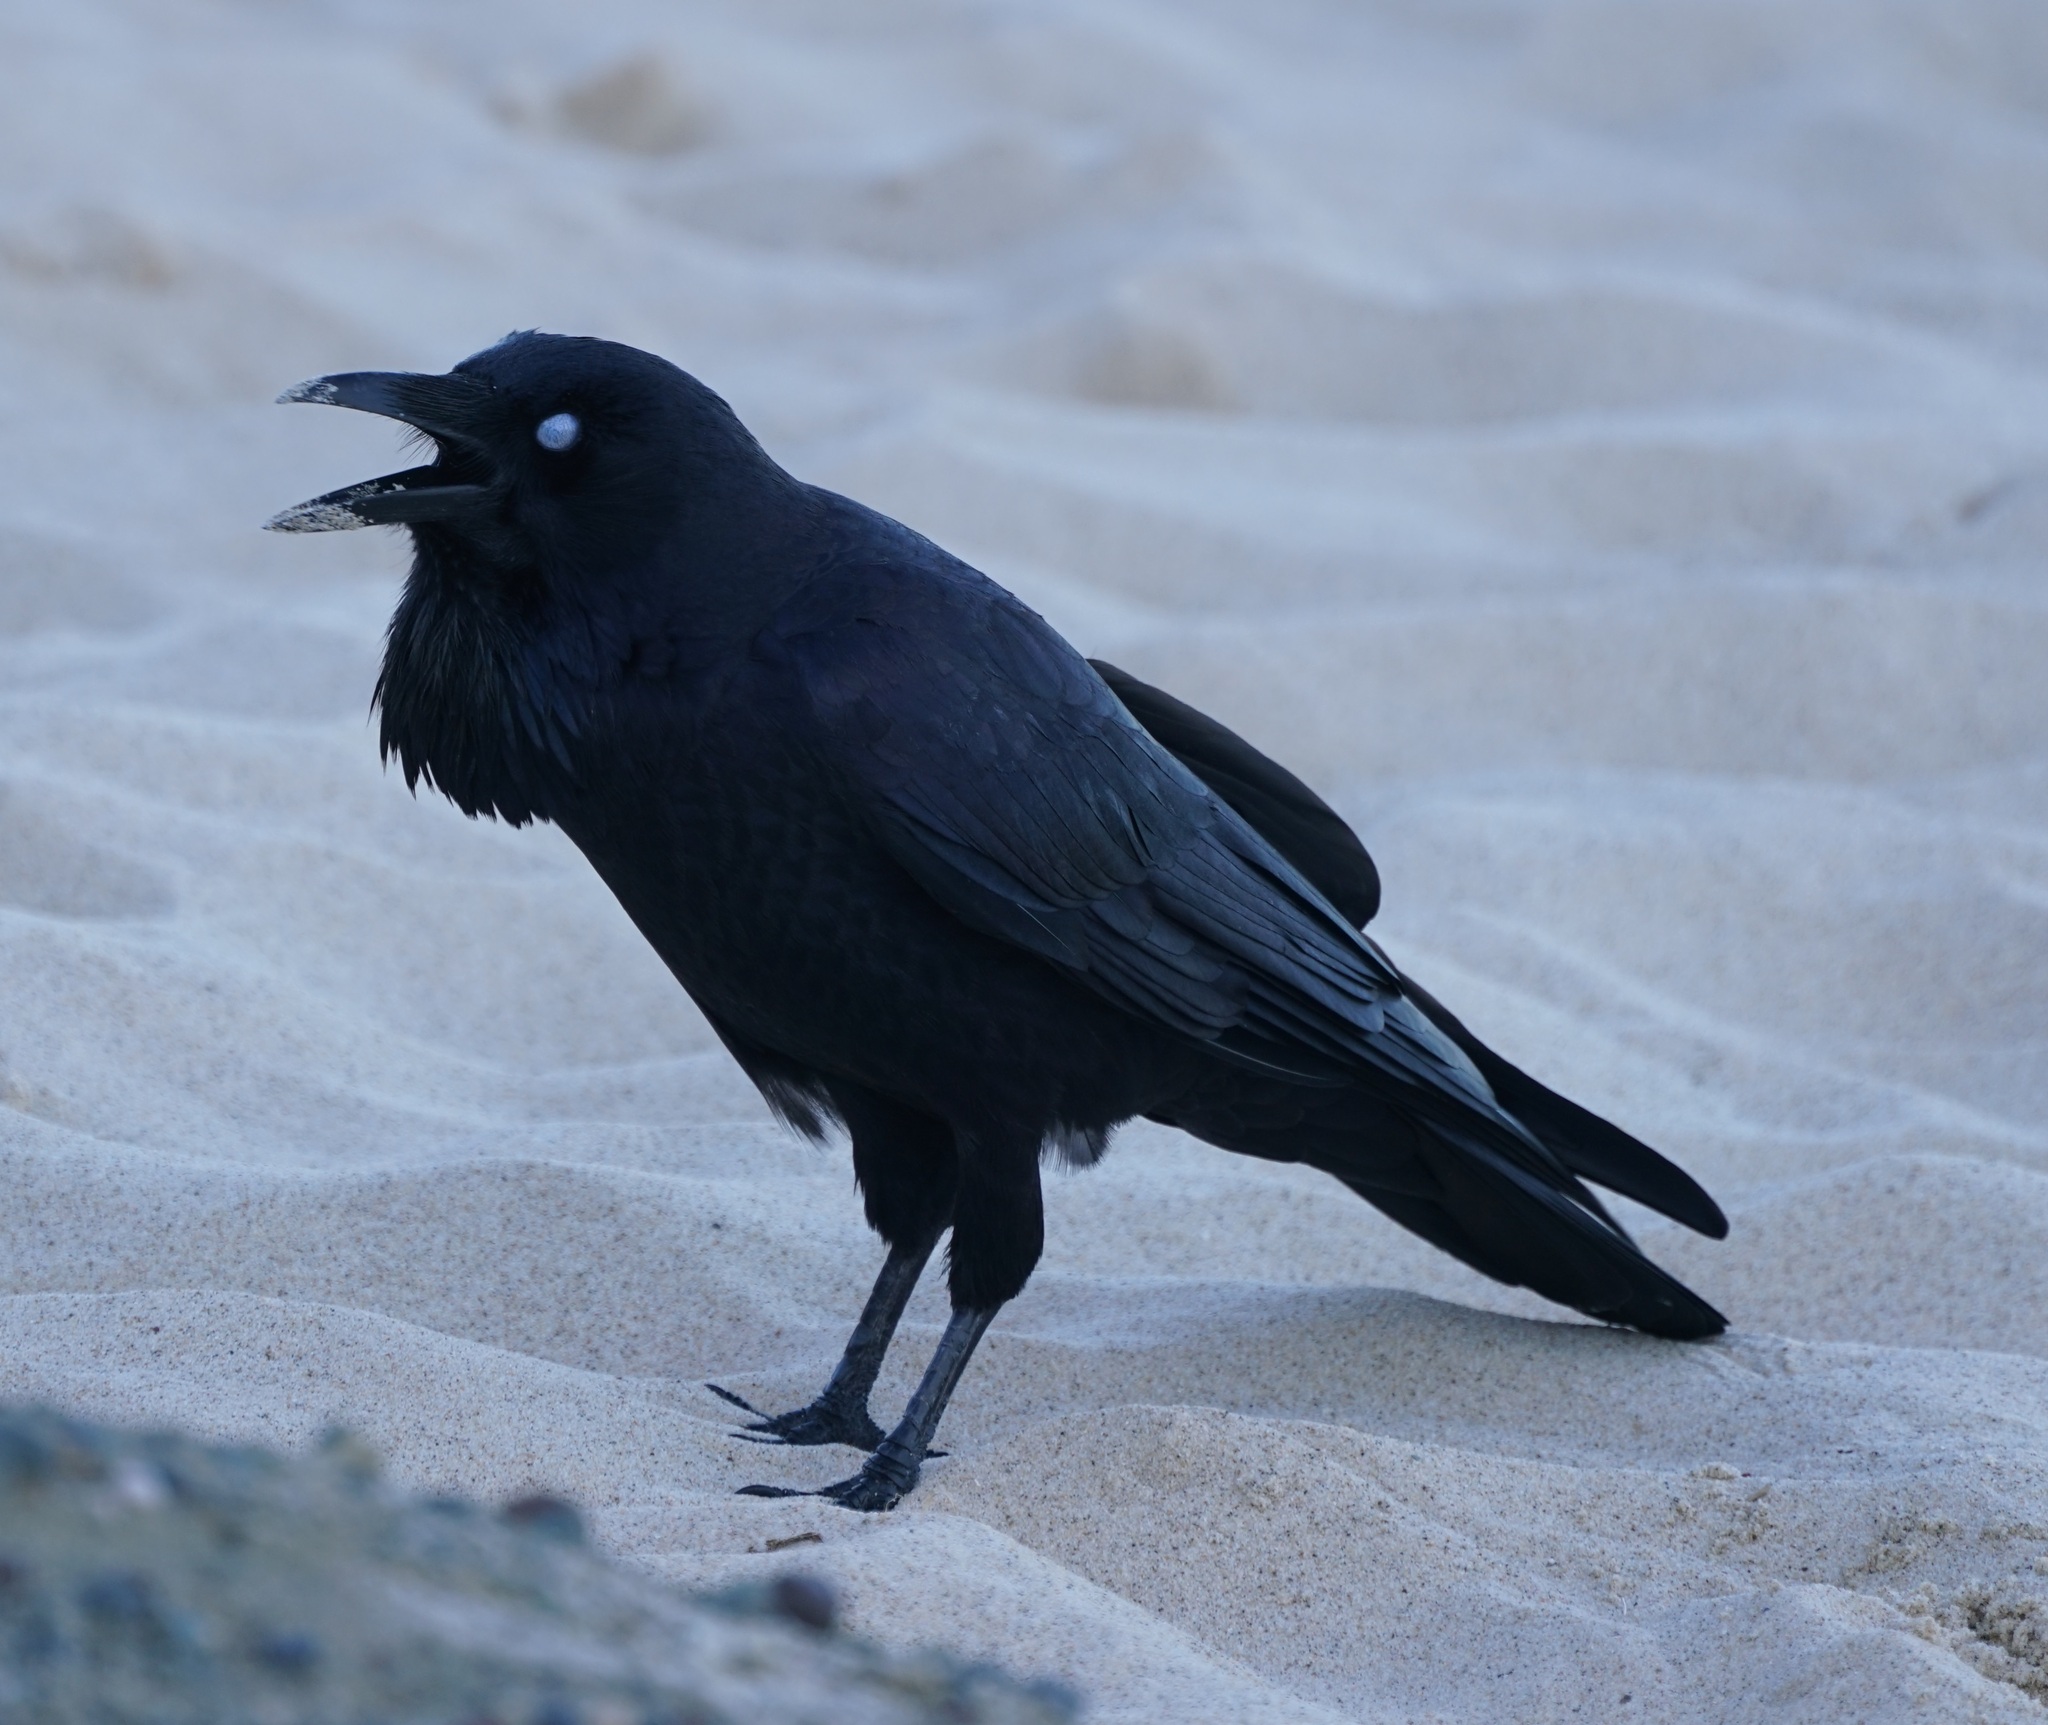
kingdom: Animalia
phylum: Chordata
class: Aves
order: Passeriformes
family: Corvidae
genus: Corvus
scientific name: Corvus coronoides
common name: Australian raven
